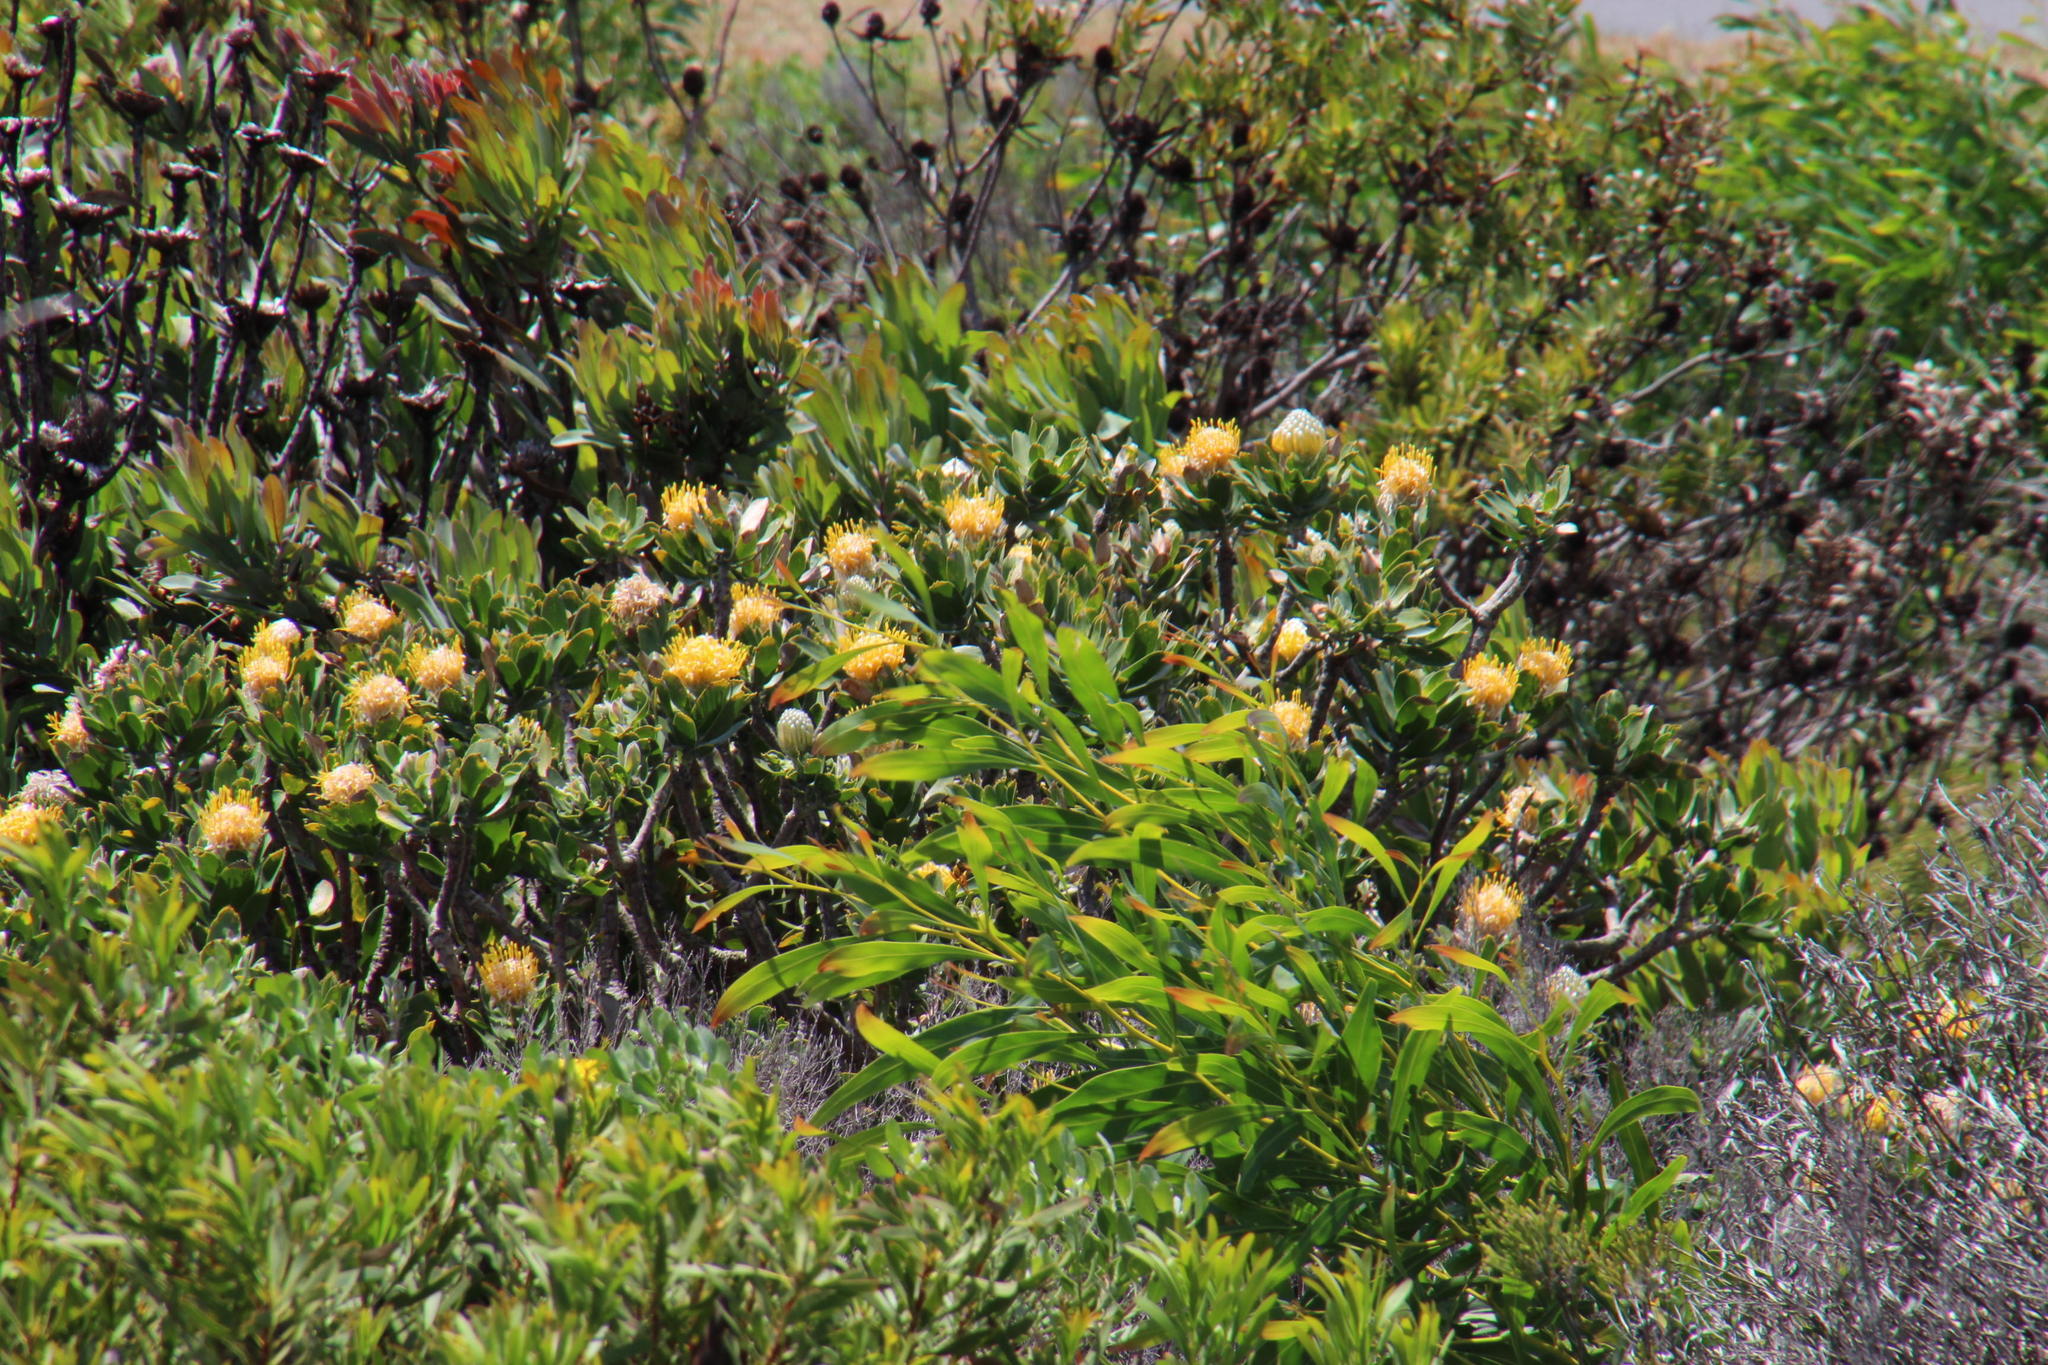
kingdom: Plantae
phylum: Tracheophyta
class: Magnoliopsida
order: Proteales
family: Proteaceae
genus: Leucospermum
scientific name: Leucospermum conocarpodendron
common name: Tree pincushion
